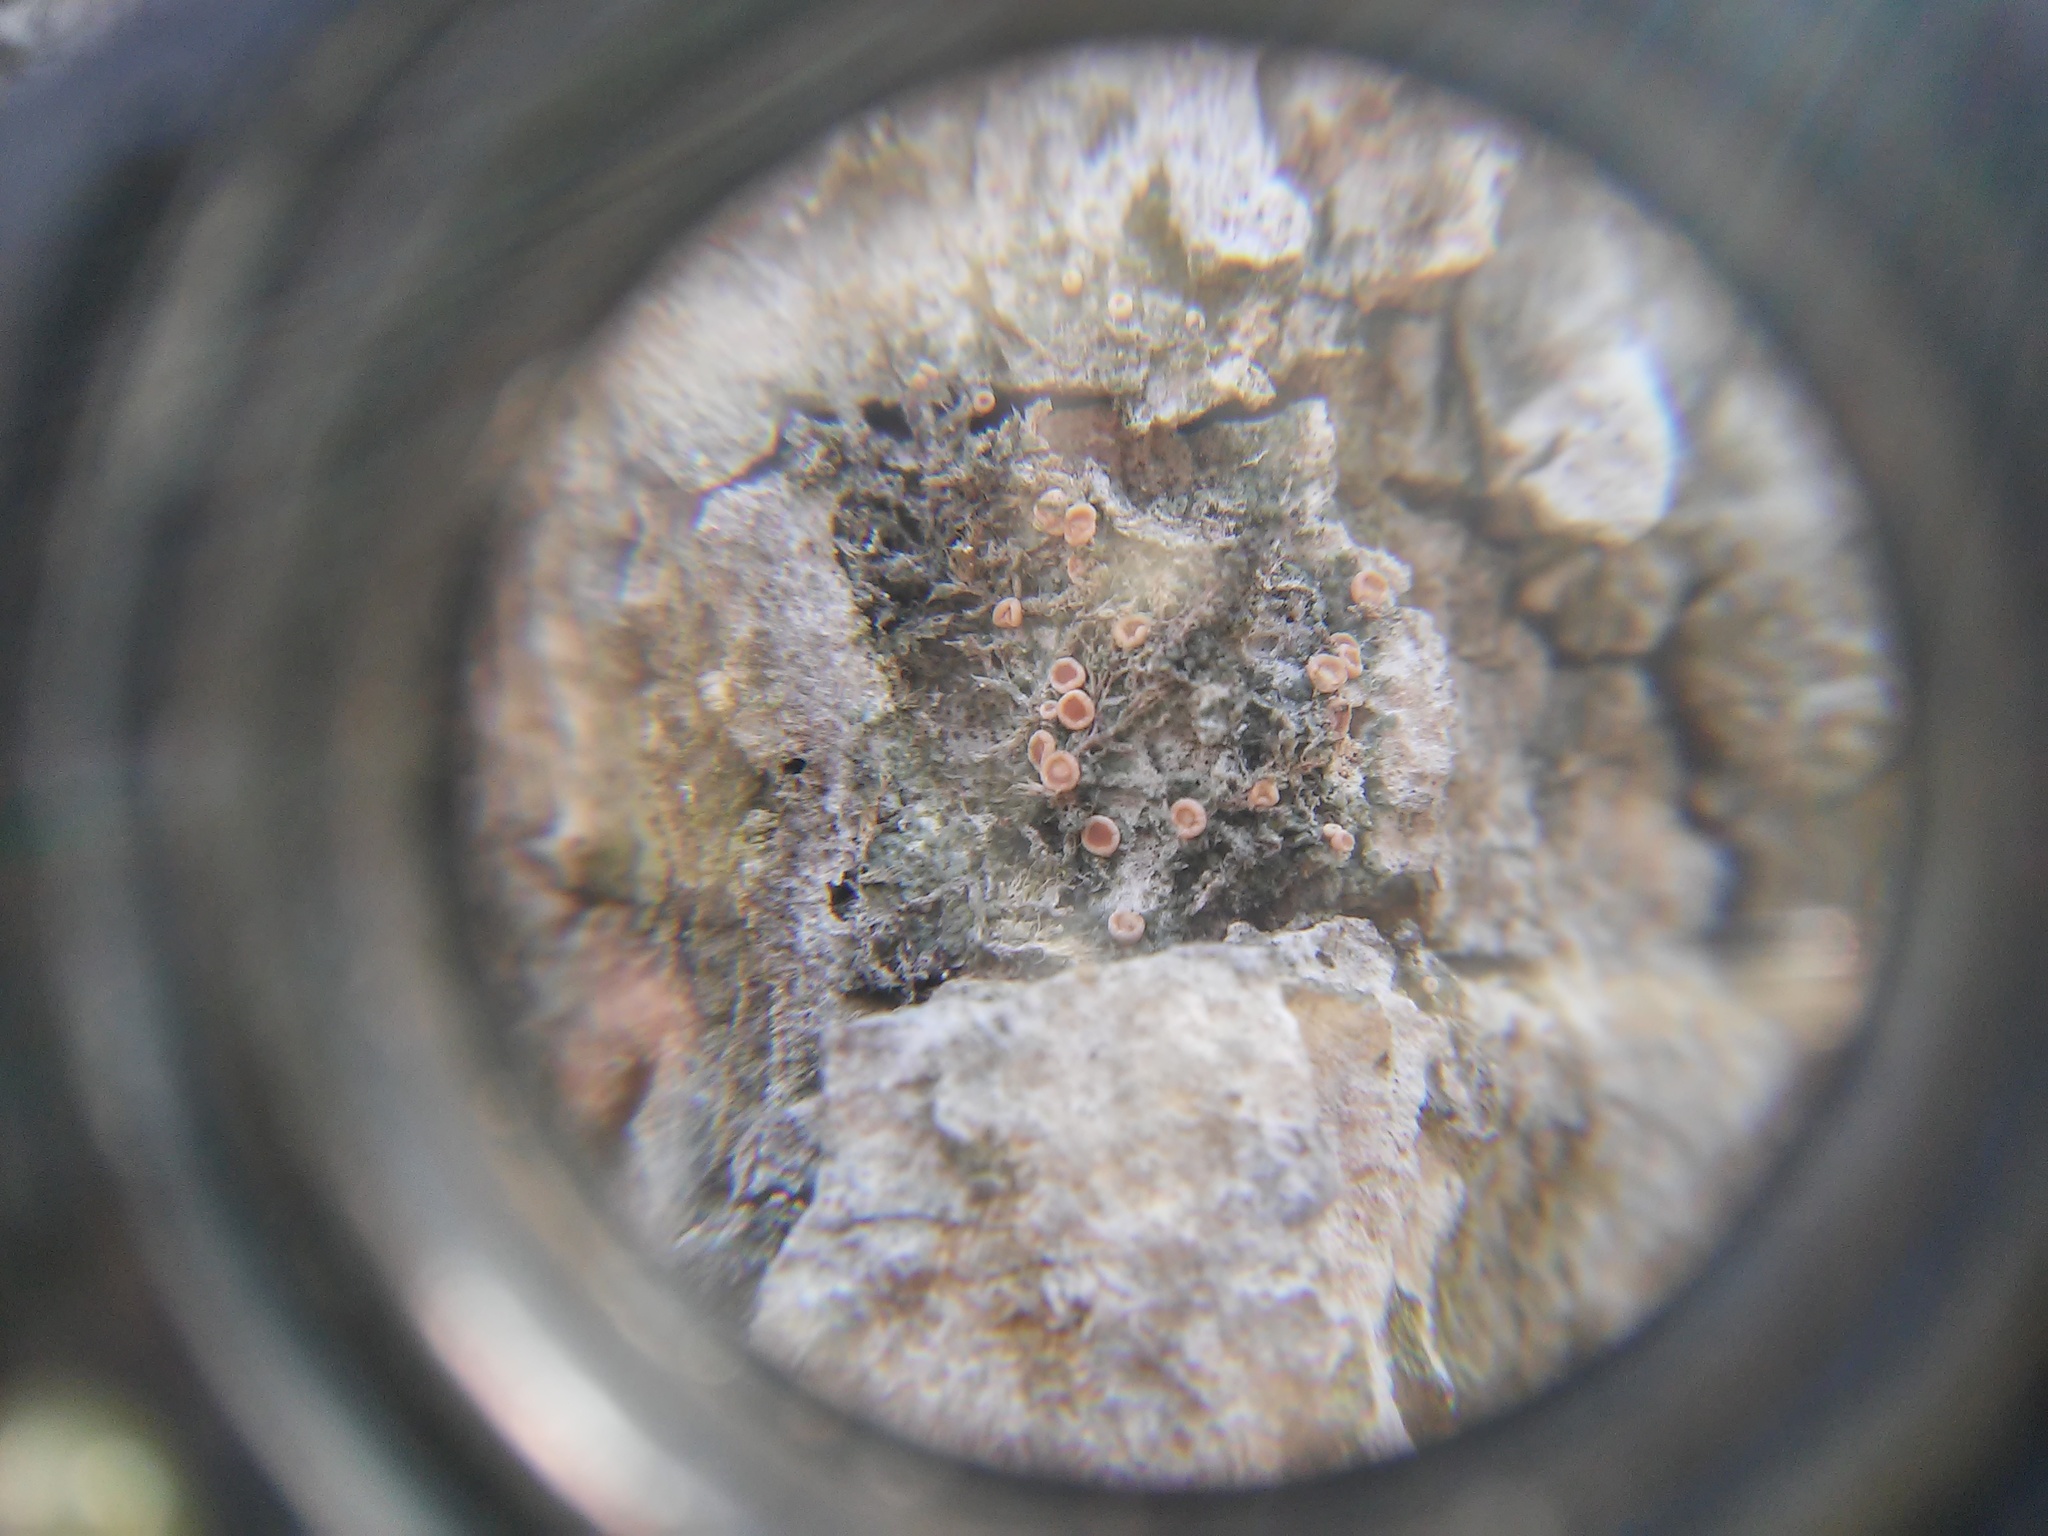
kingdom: Fungi
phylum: Ascomycota
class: Lecanoromycetes
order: Lecanorales
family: Ramalinaceae
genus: Bacidia
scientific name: Bacidia rubella
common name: Frosty-rimmed dot lichen
